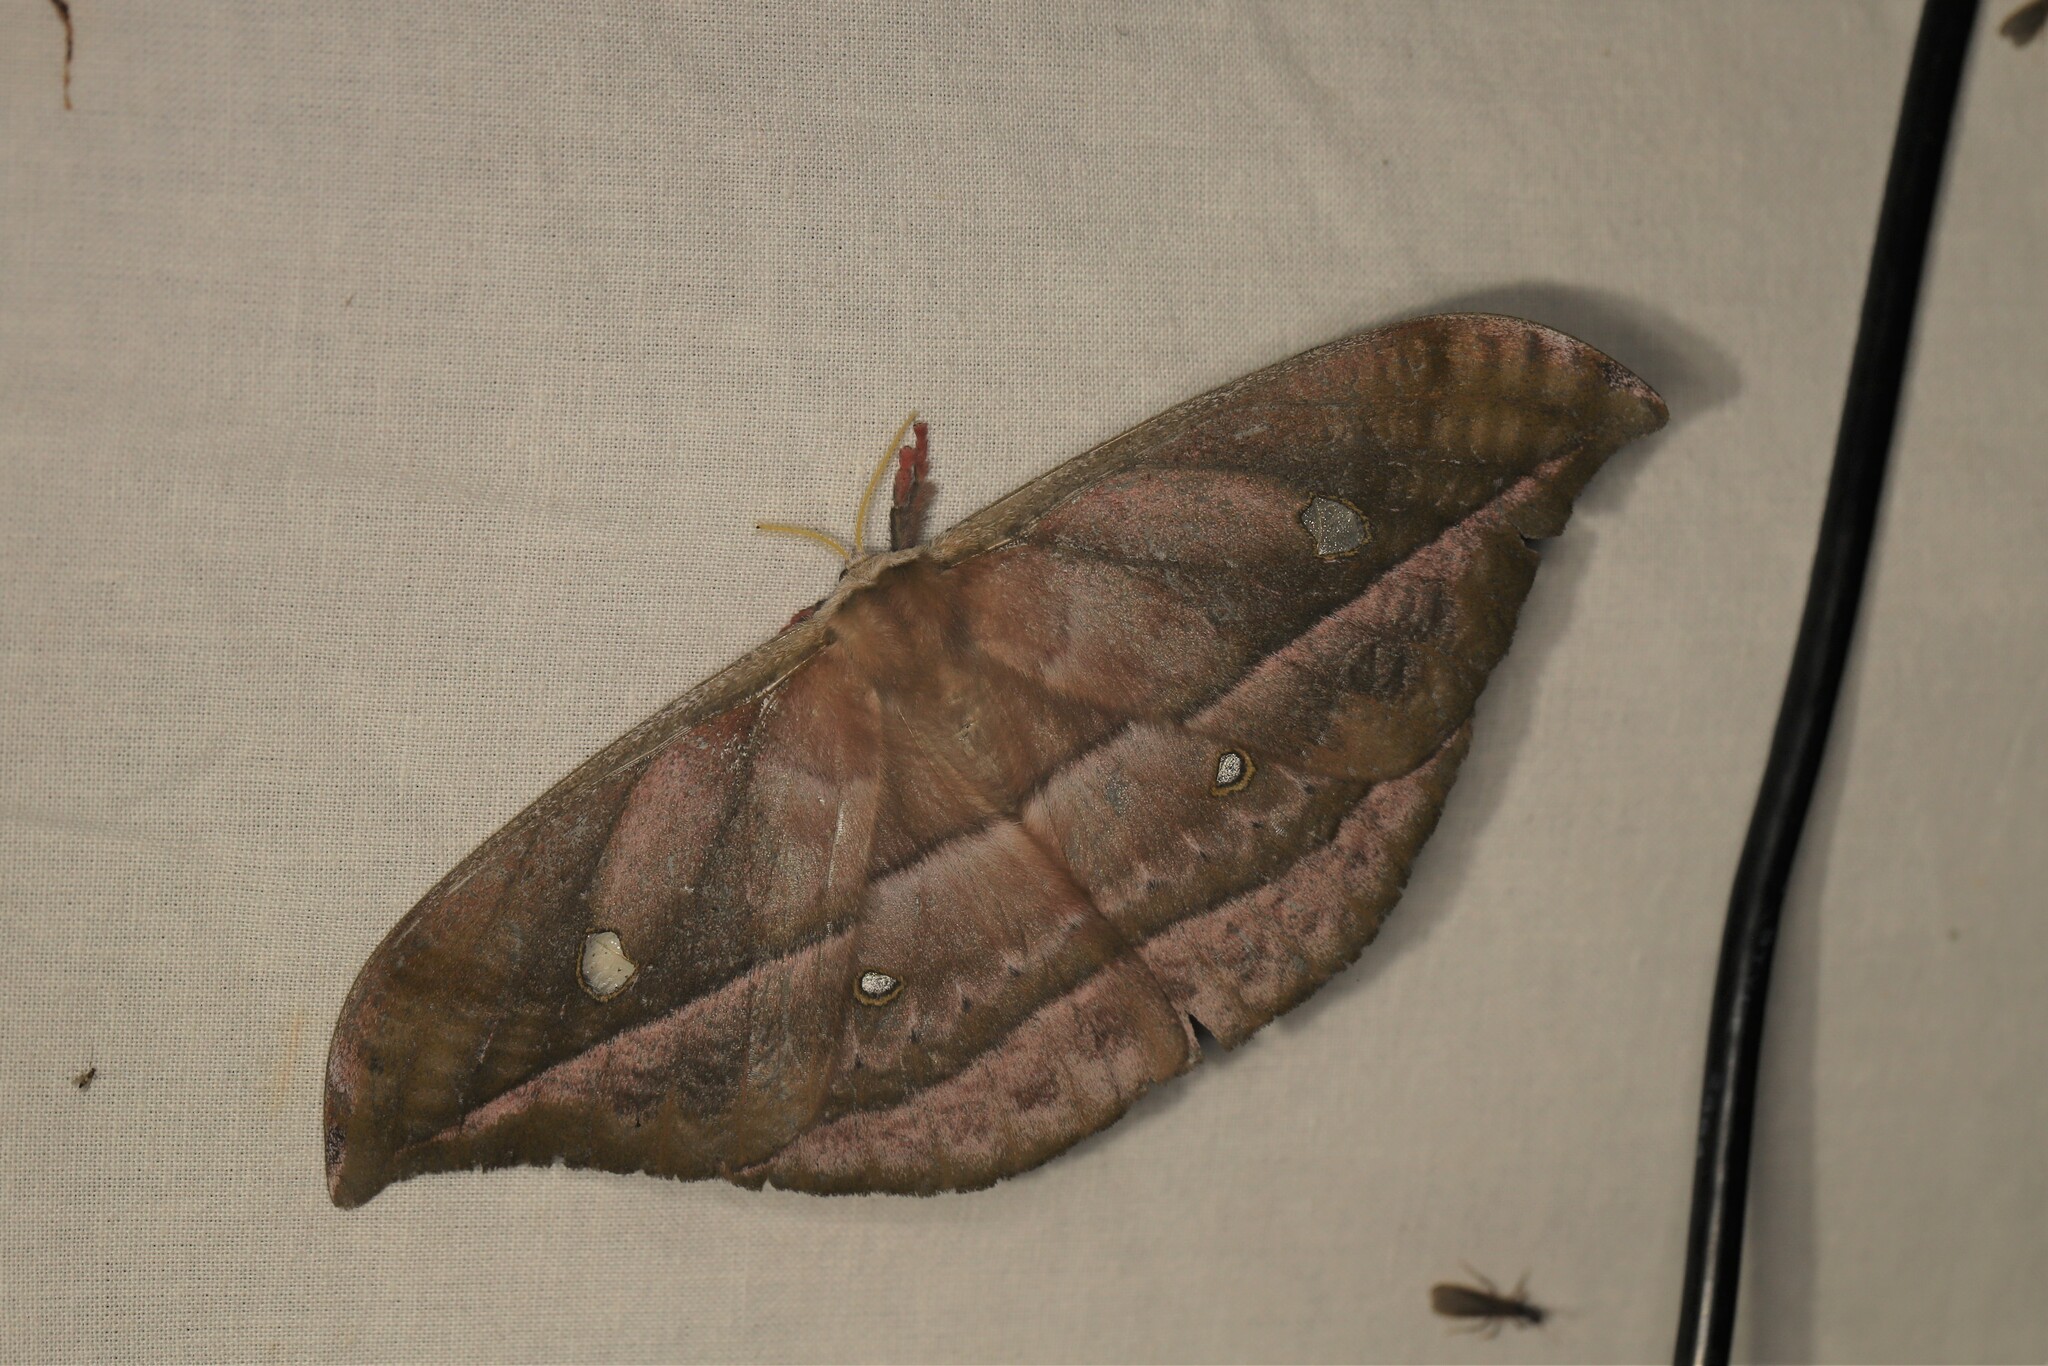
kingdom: Animalia
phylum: Arthropoda
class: Insecta
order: Lepidoptera
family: Saturniidae
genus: Copaxa
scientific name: Copaxa decrescens
